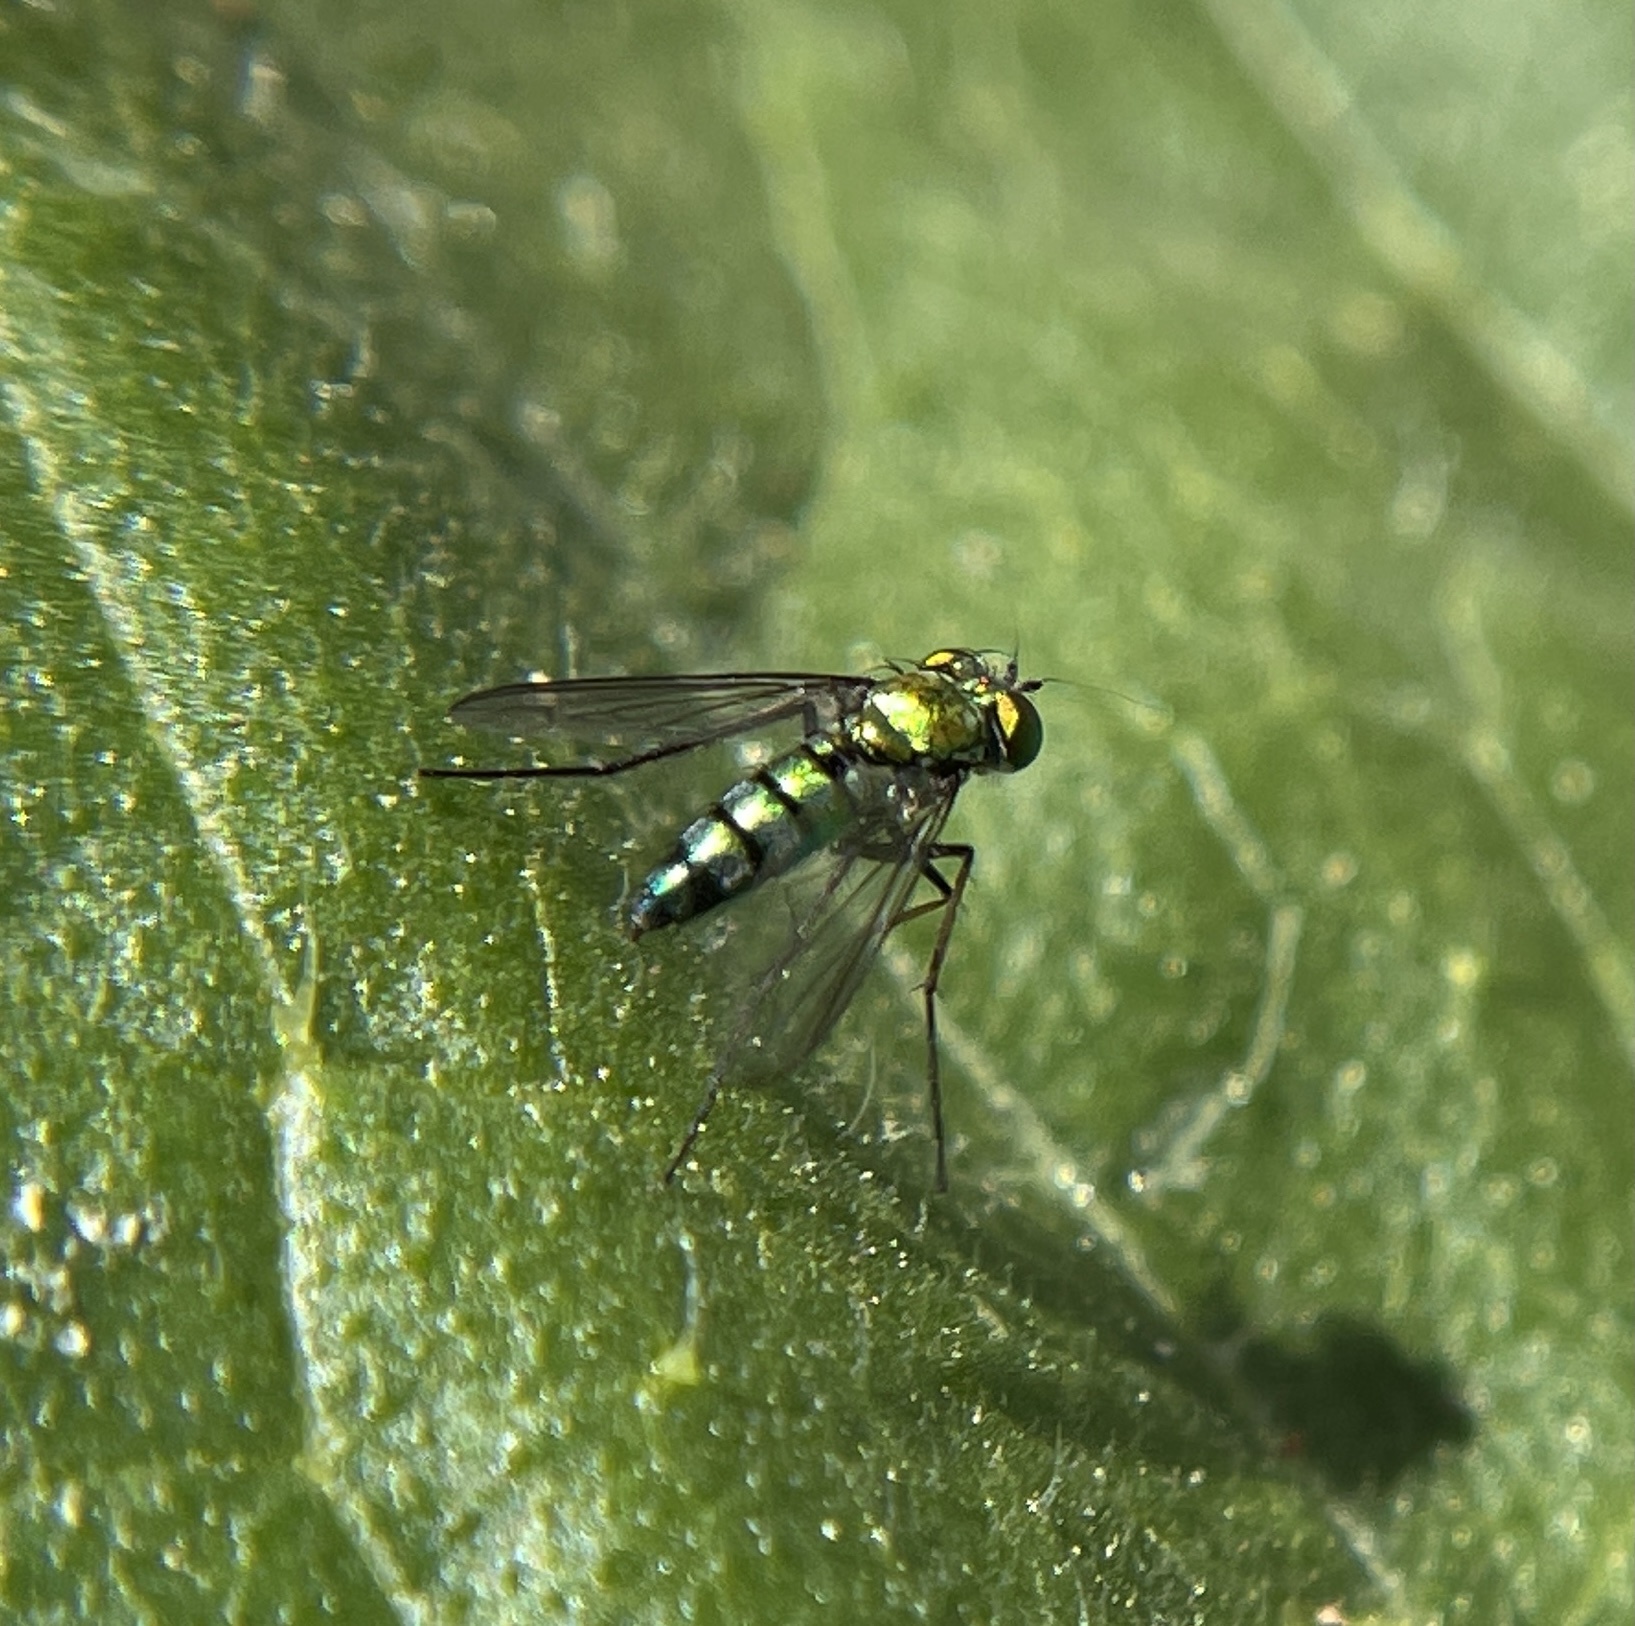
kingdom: Animalia
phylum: Arthropoda
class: Insecta
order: Diptera
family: Dolichopodidae
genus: Condylostylus
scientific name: Condylostylus longicornis
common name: Long-legged fly
